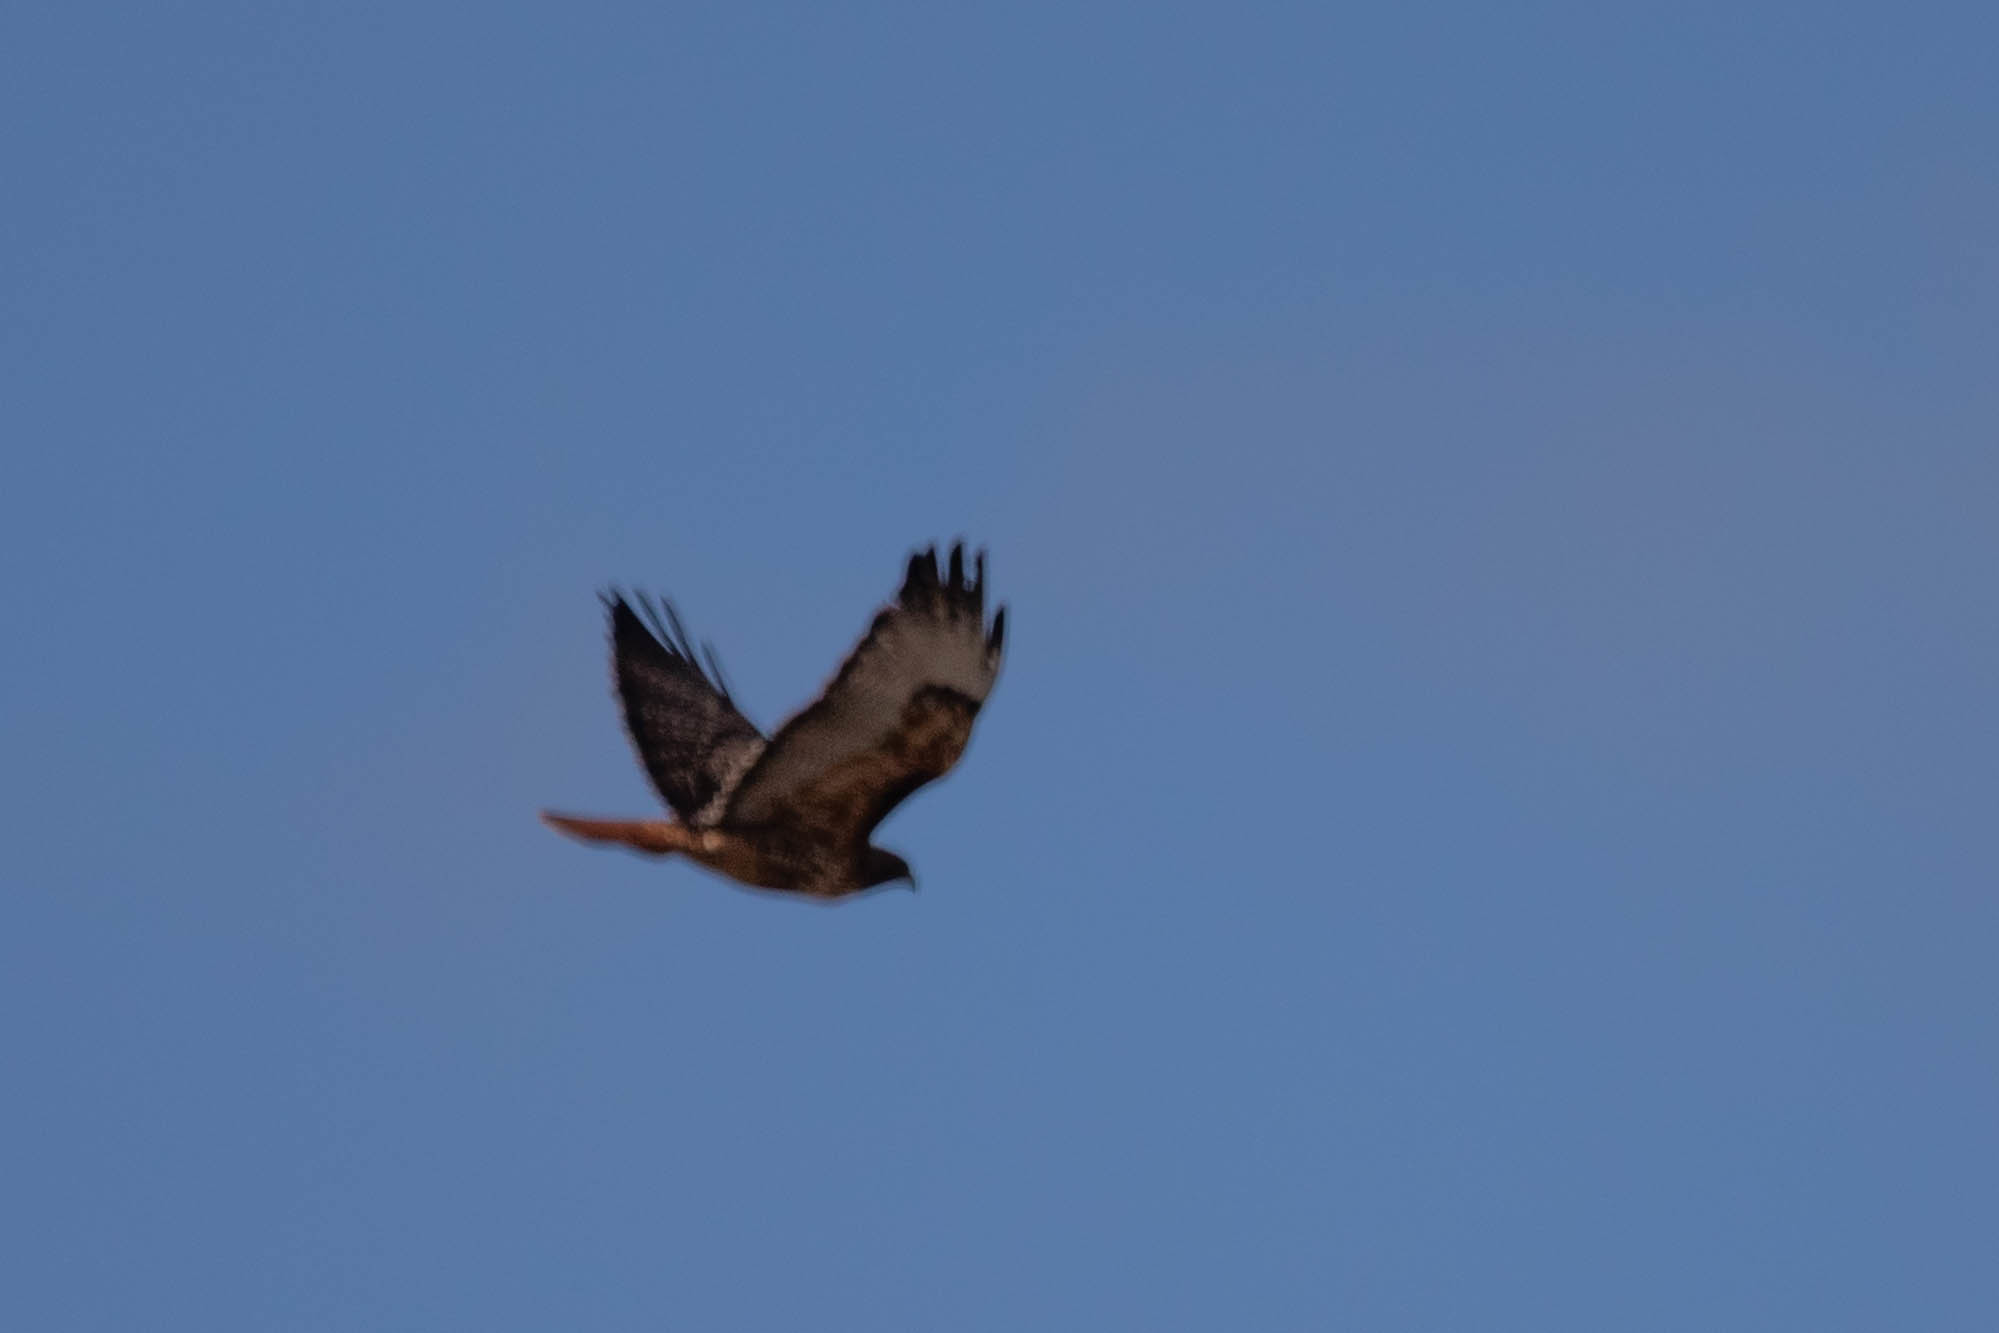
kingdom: Animalia
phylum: Chordata
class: Aves
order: Accipitriformes
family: Accipitridae
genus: Buteo
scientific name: Buteo jamaicensis
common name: Red-tailed hawk
